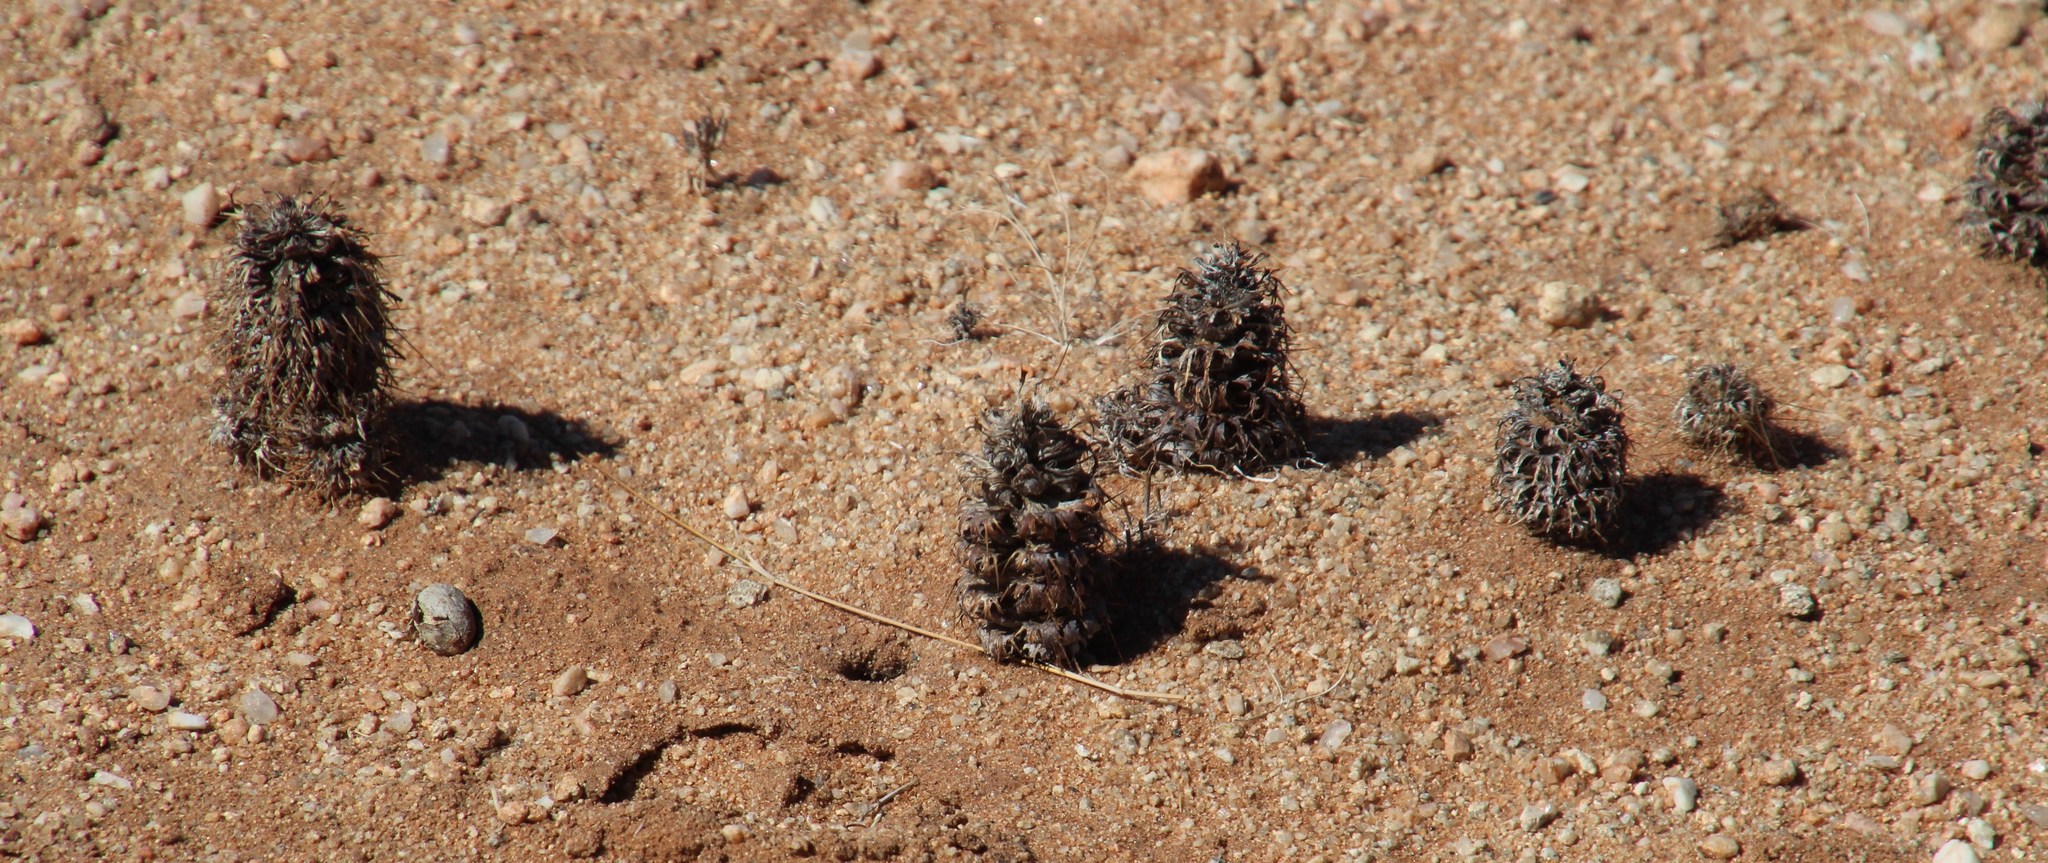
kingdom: Plantae
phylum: Tracheophyta
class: Magnoliopsida
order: Lamiales
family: Acanthaceae
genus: Acanthopsis
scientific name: Acanthopsis hoffmannseggiana
